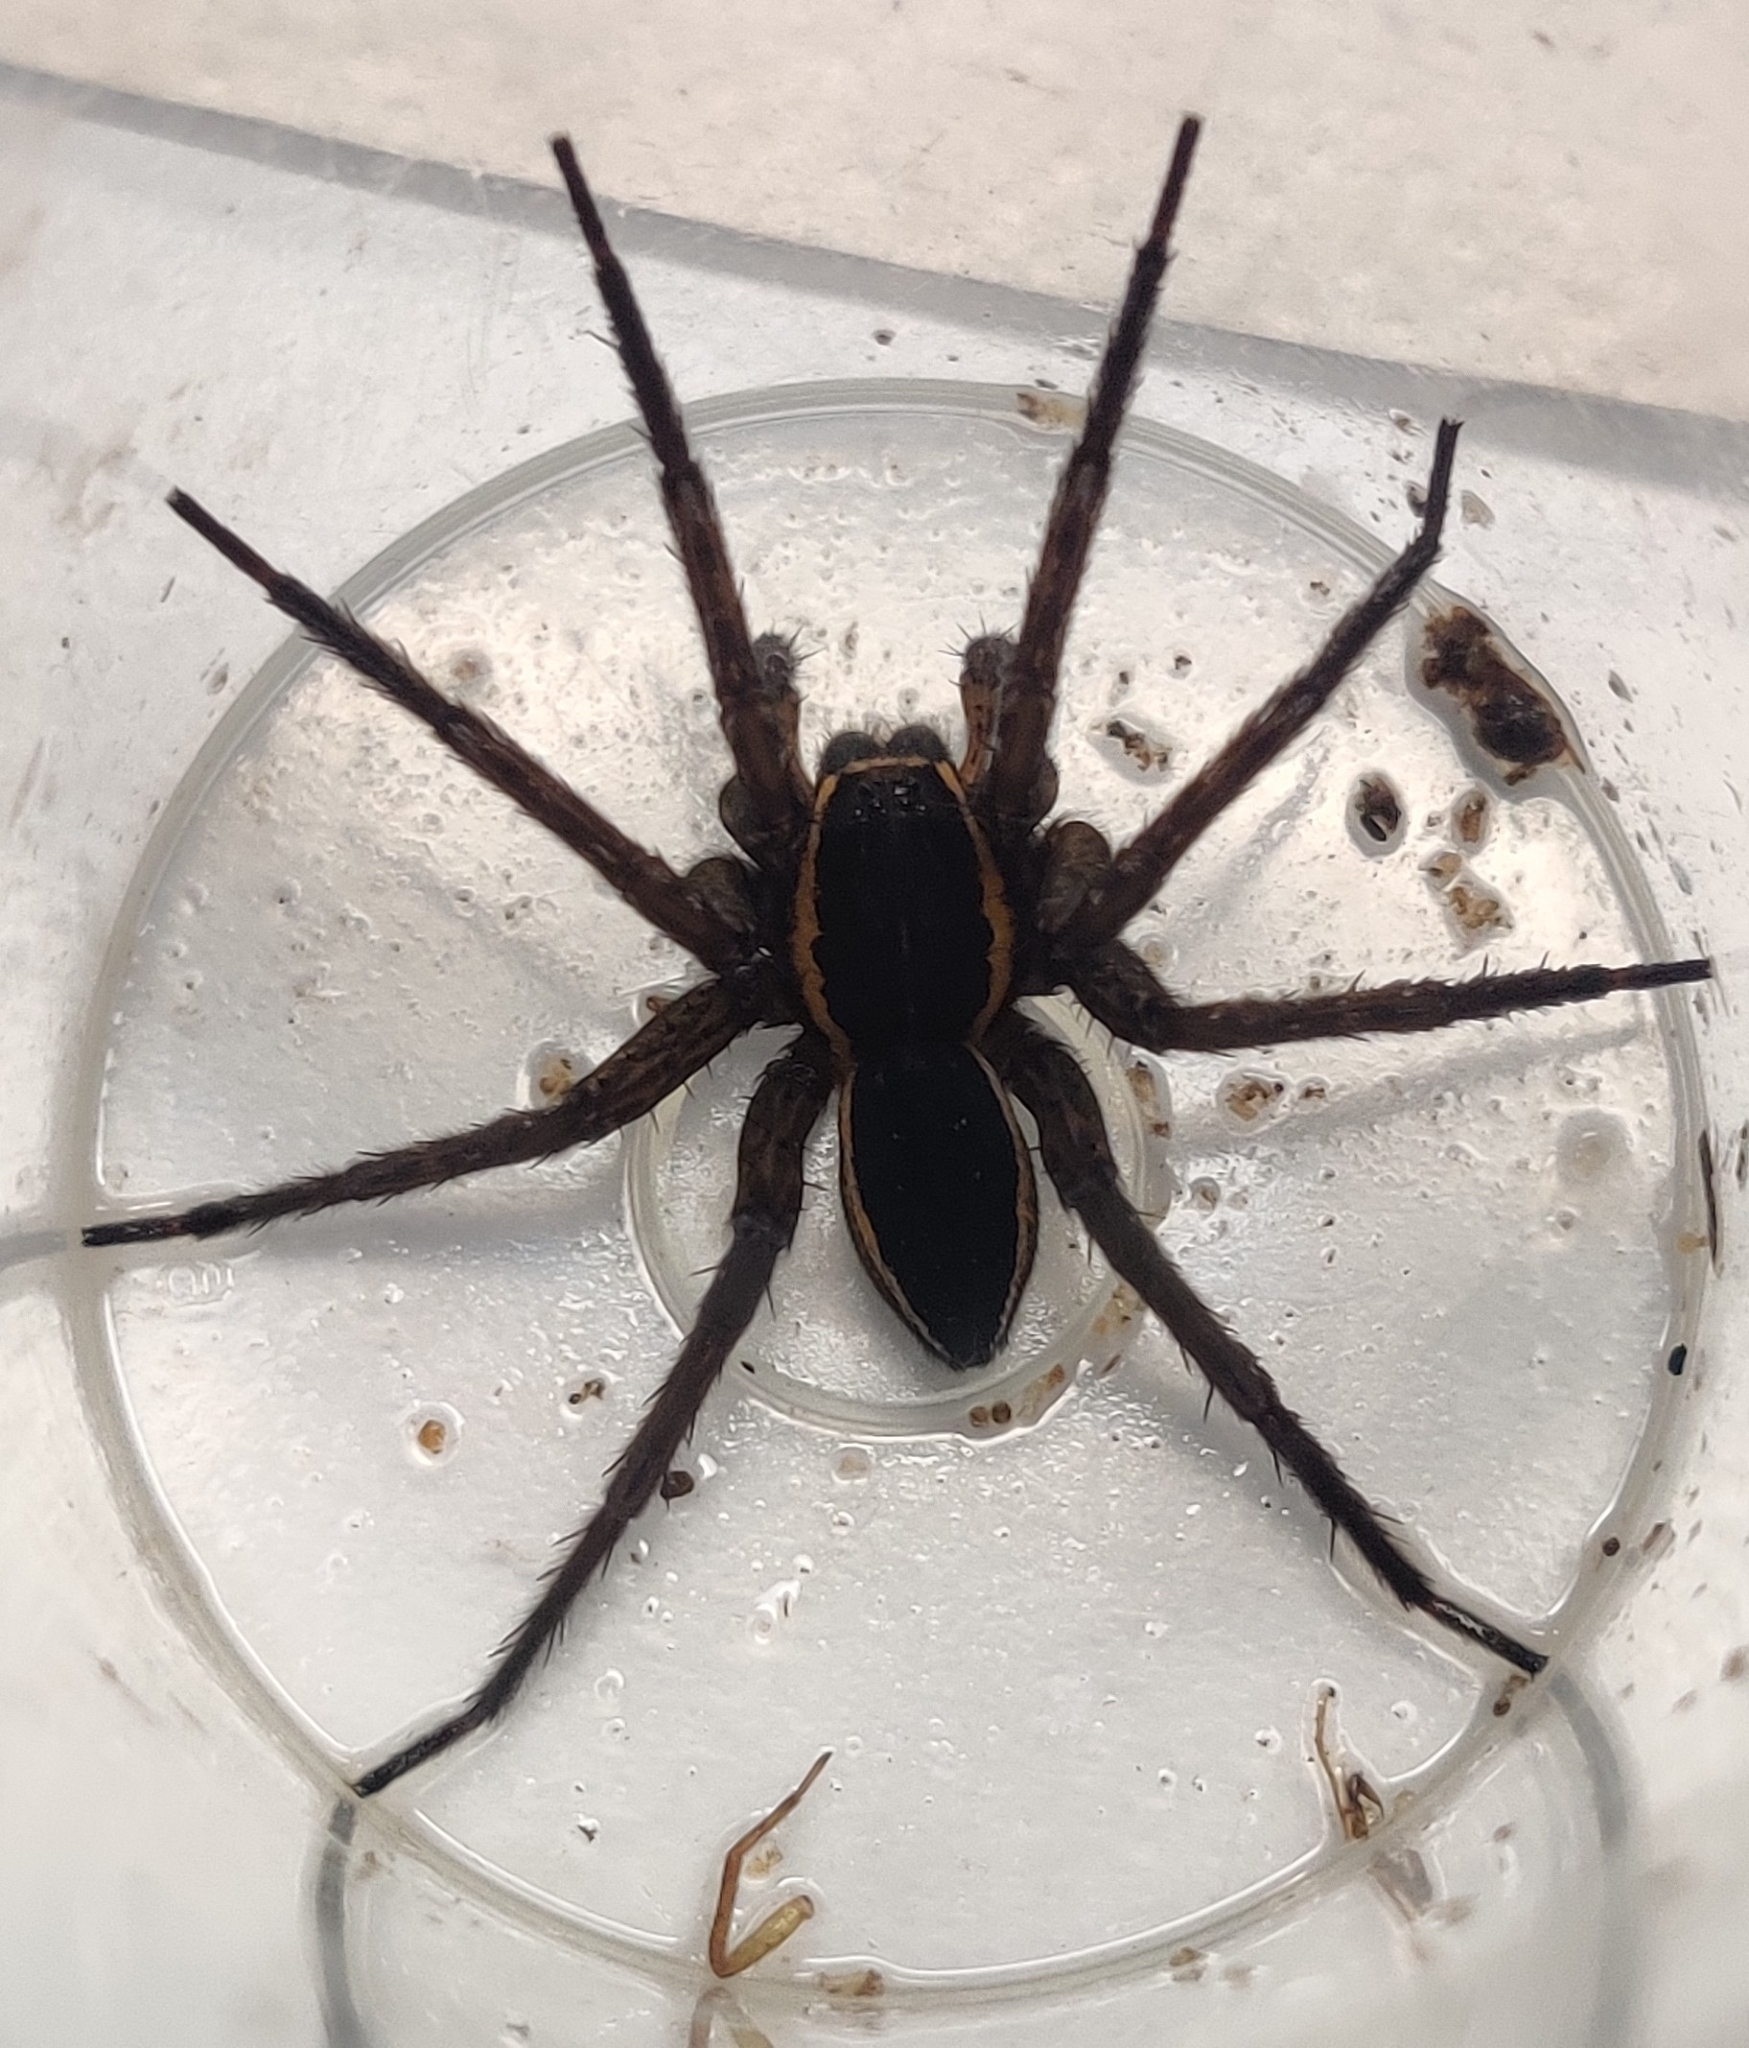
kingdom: Animalia
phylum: Arthropoda
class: Arachnida
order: Araneae
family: Pisauridae
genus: Dolomedes
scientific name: Dolomedes plantarius
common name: Fen raft spider
